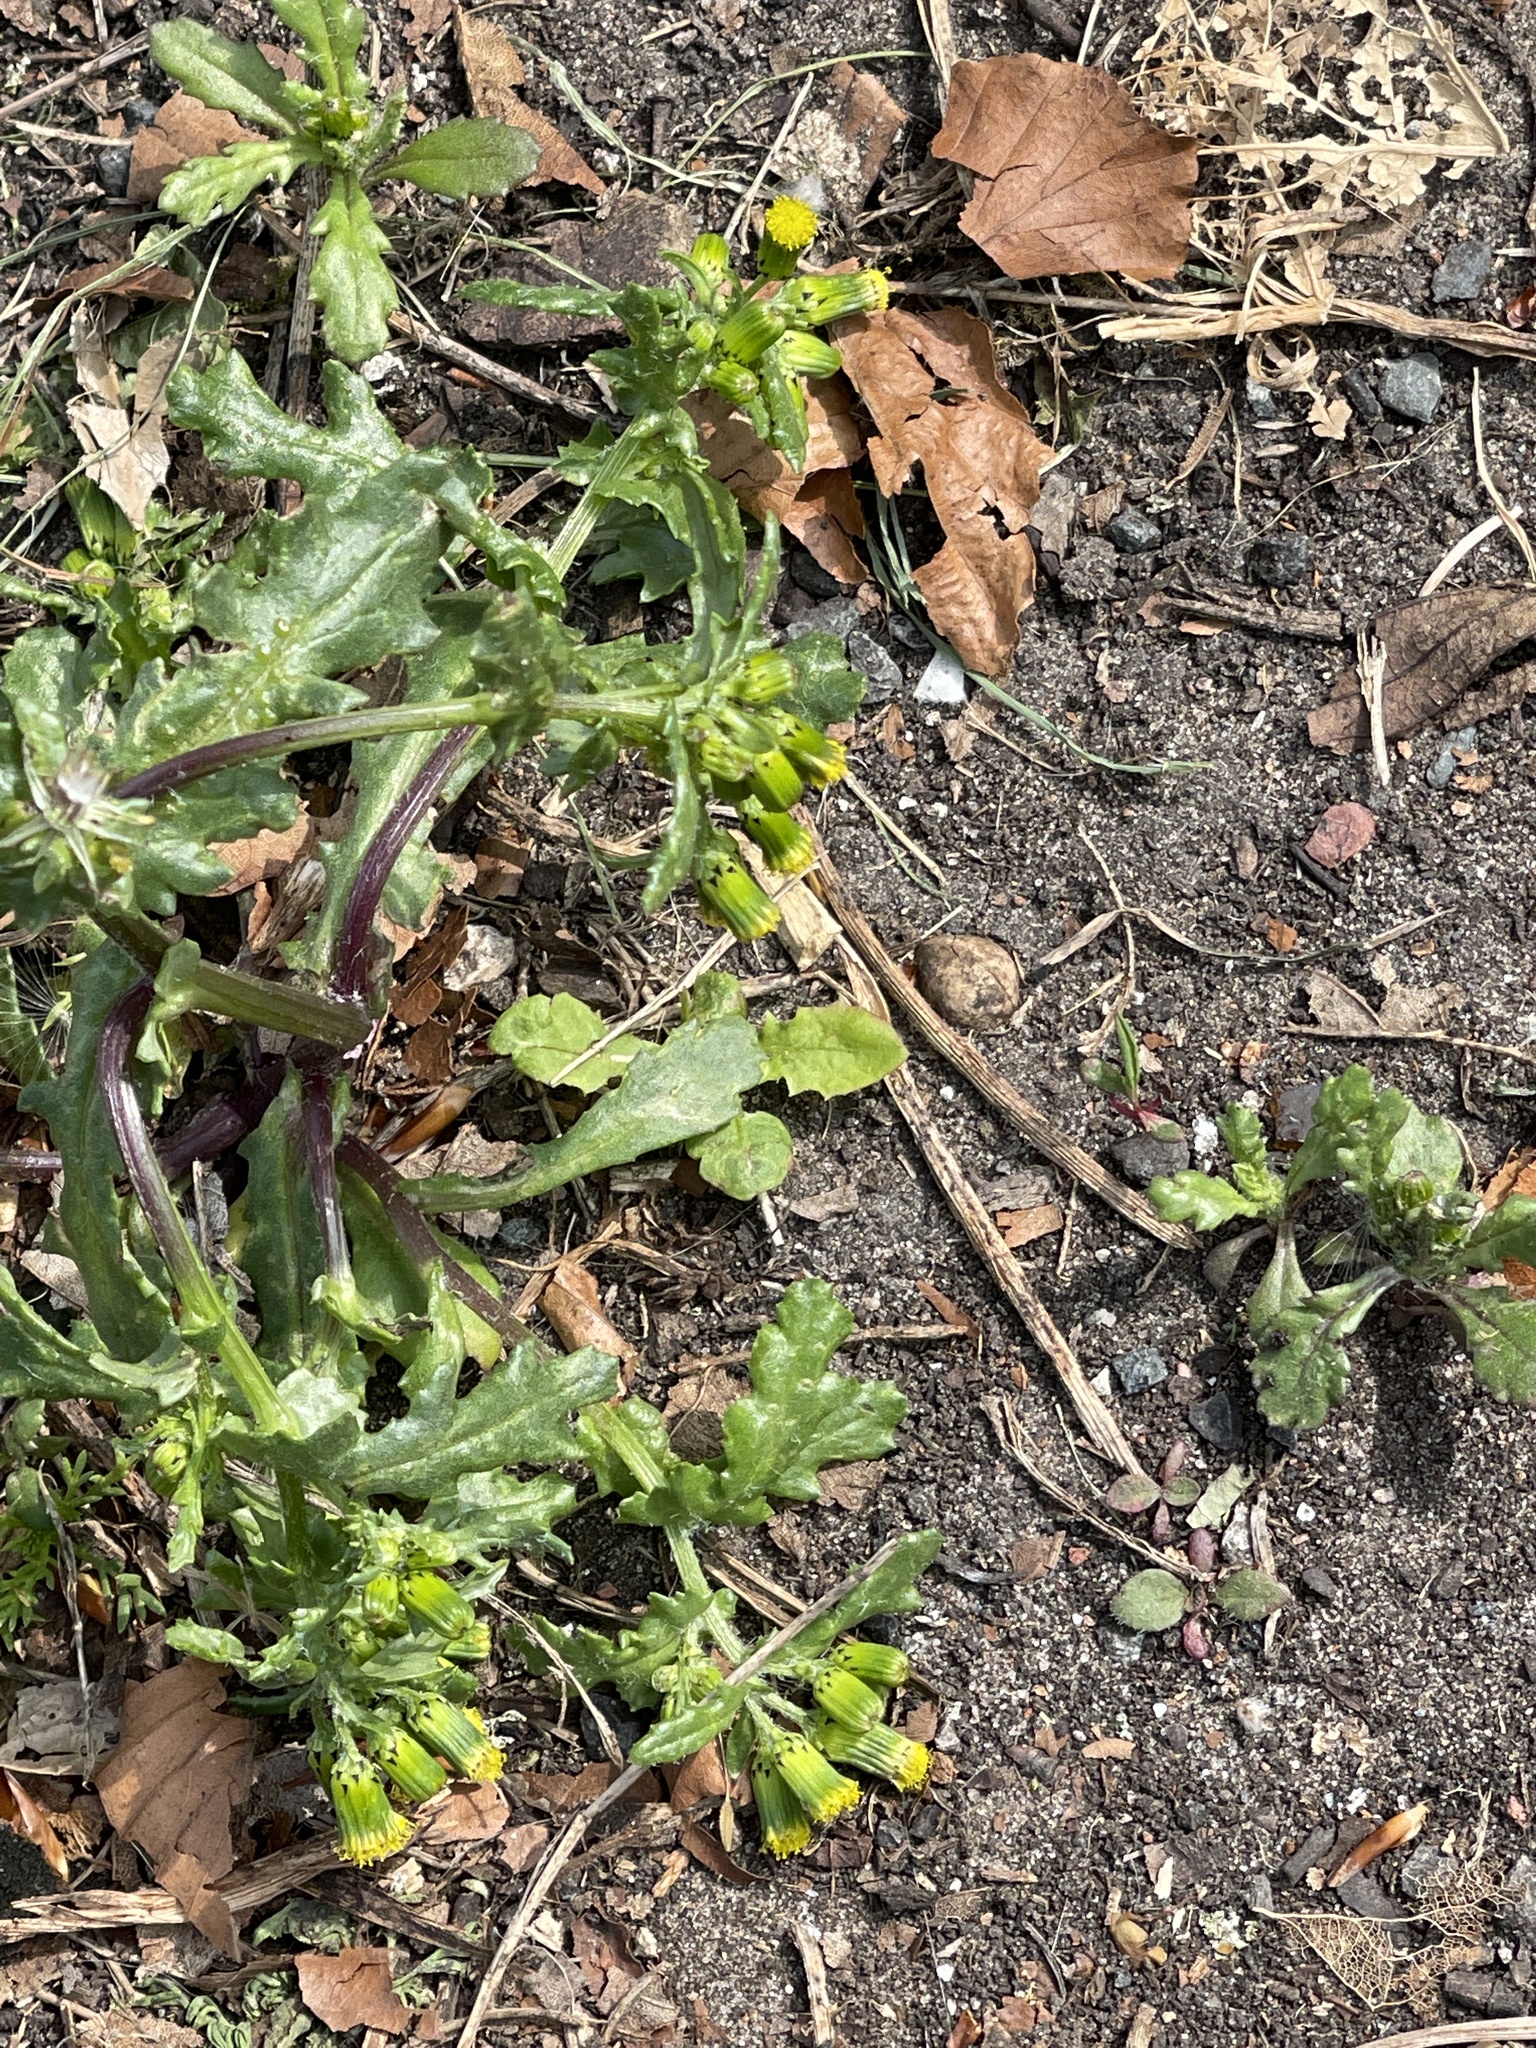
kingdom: Plantae
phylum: Tracheophyta
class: Magnoliopsida
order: Asterales
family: Asteraceae
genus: Senecio
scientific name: Senecio vulgaris
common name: Old-man-in-the-spring
